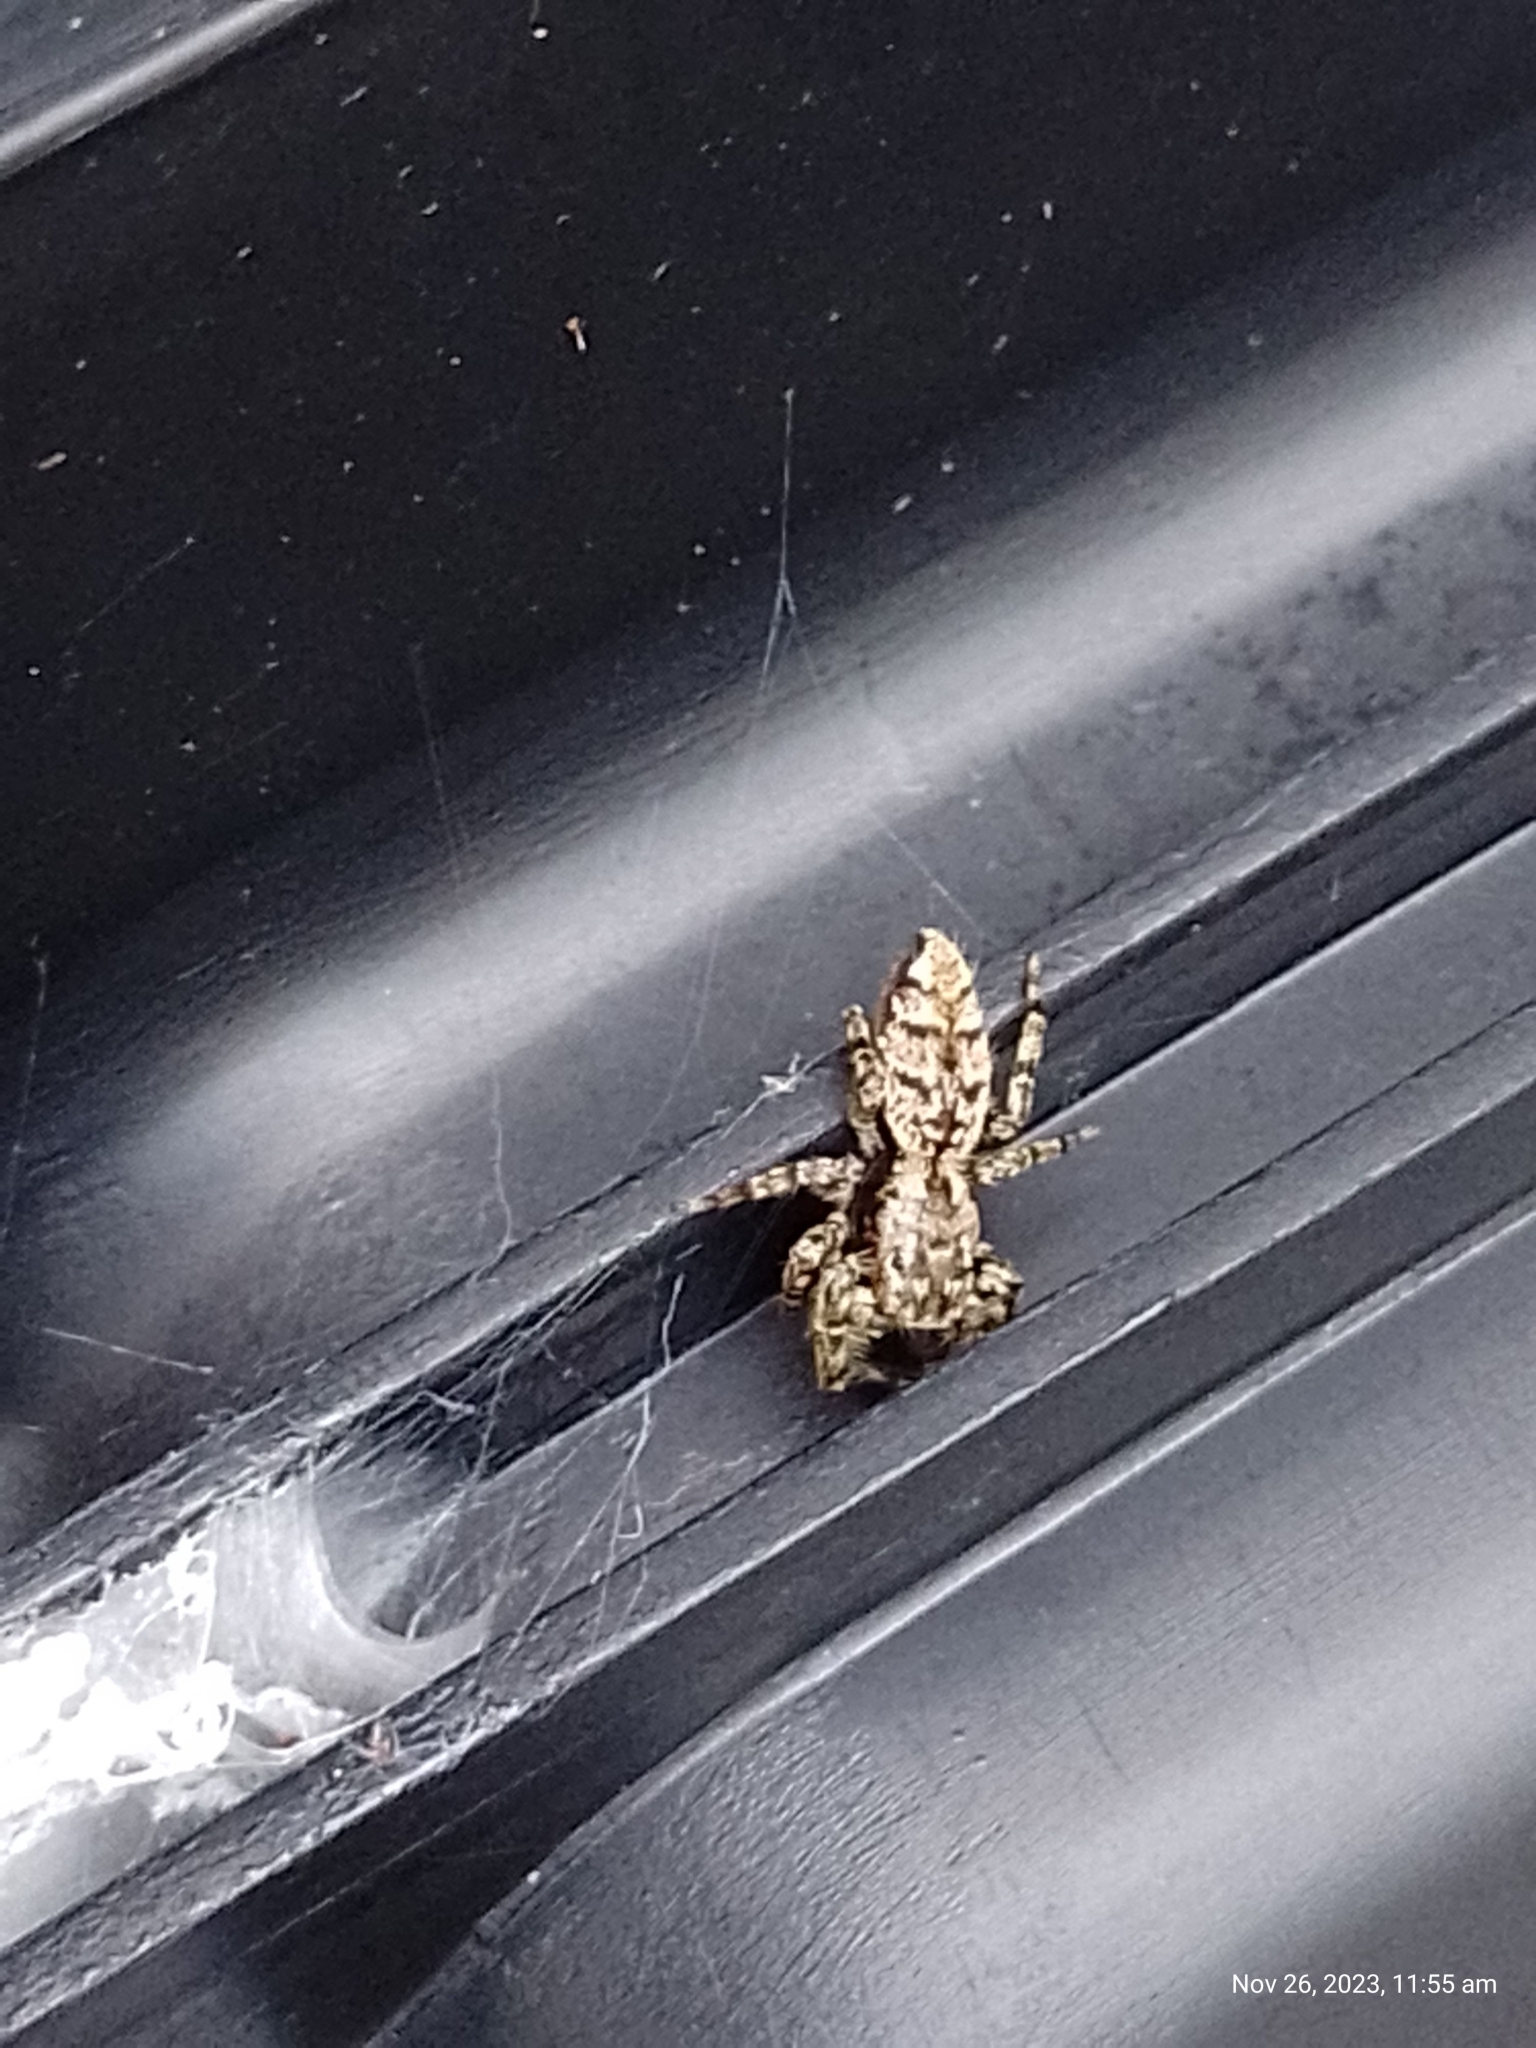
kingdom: Animalia
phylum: Arthropoda
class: Arachnida
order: Araneae
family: Salticidae
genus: Marpissa
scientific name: Marpissa muscosa
